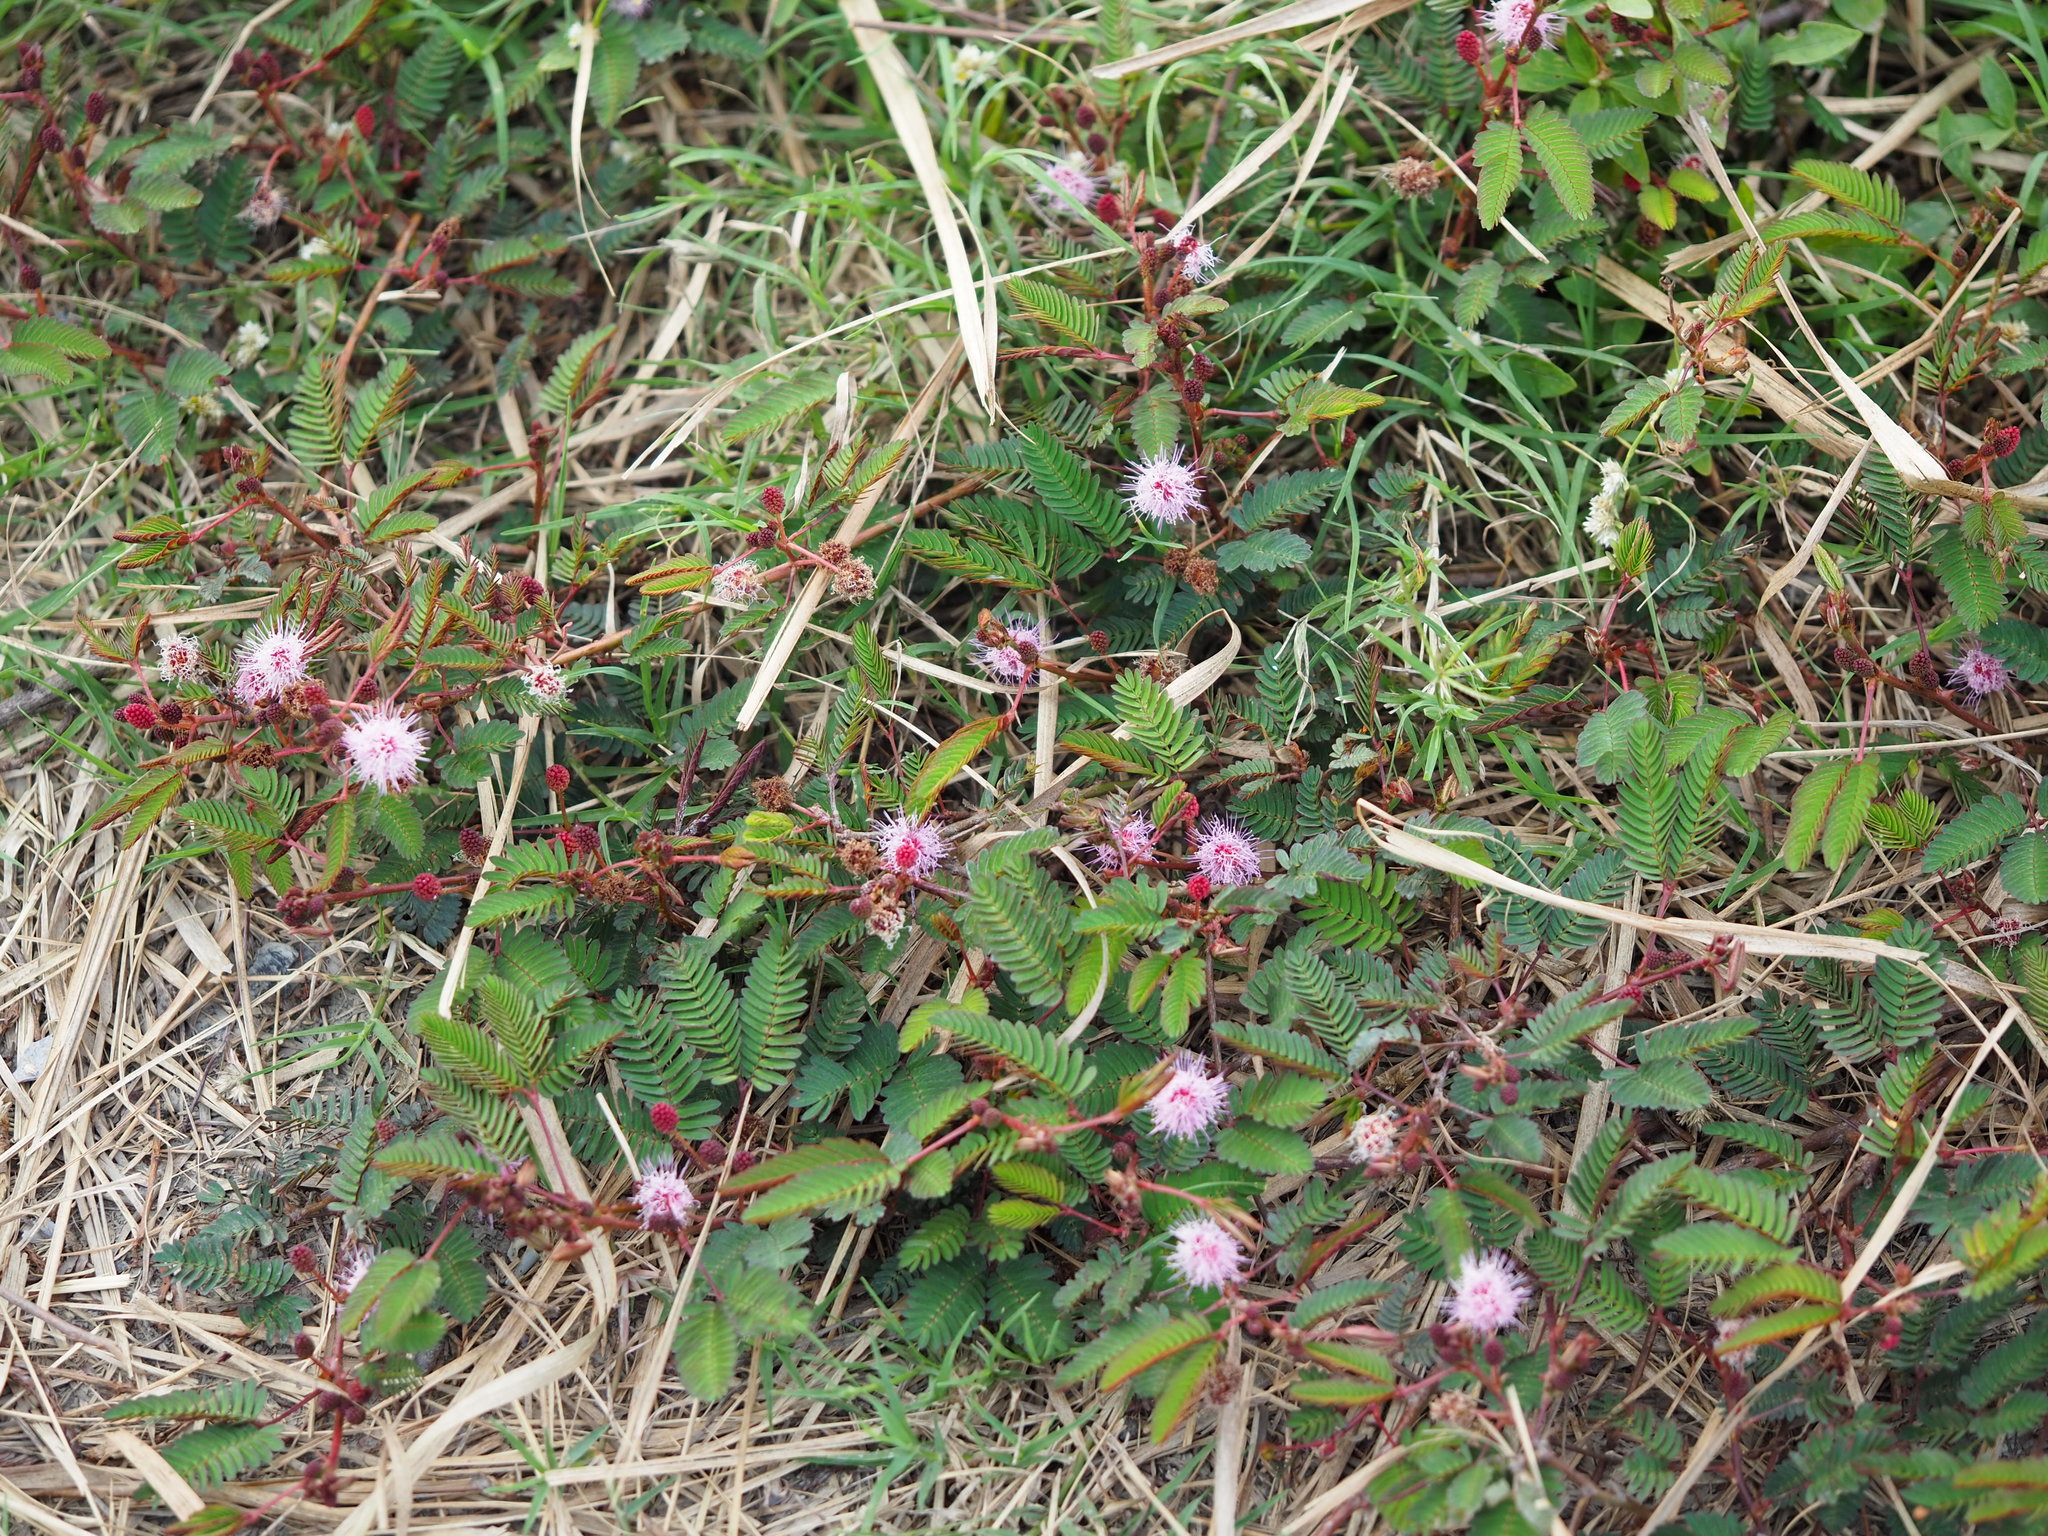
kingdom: Plantae
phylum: Tracheophyta
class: Magnoliopsida
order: Fabales
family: Fabaceae
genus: Mimosa
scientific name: Mimosa pudica
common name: Sensitive plant
